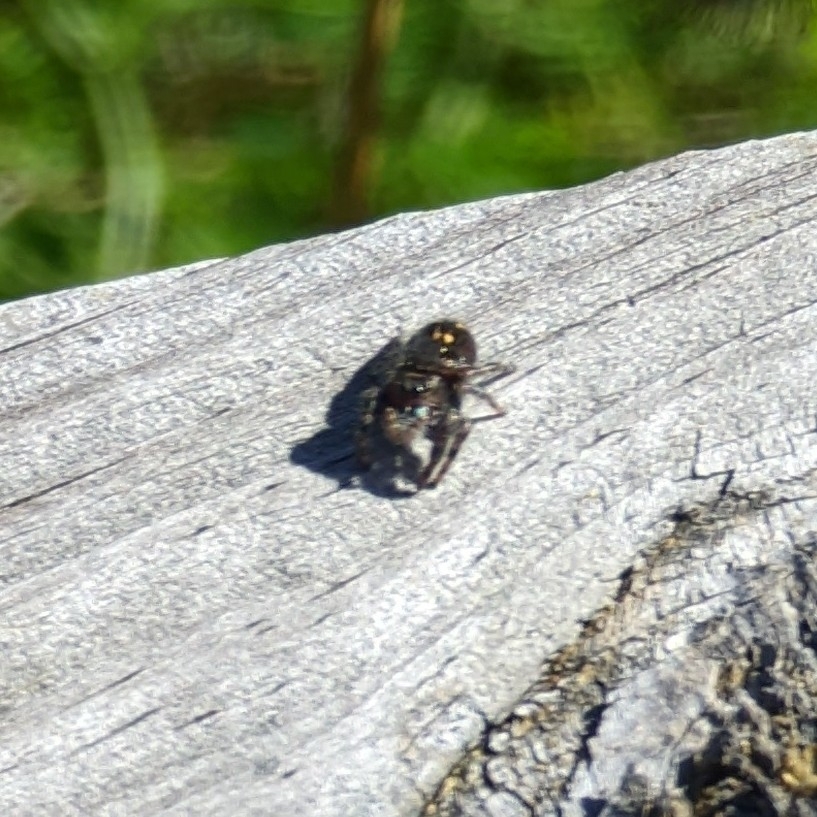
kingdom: Animalia
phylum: Arthropoda
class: Arachnida
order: Araneae
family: Salticidae
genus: Phidippus
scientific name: Phidippus audax
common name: Bold jumper
